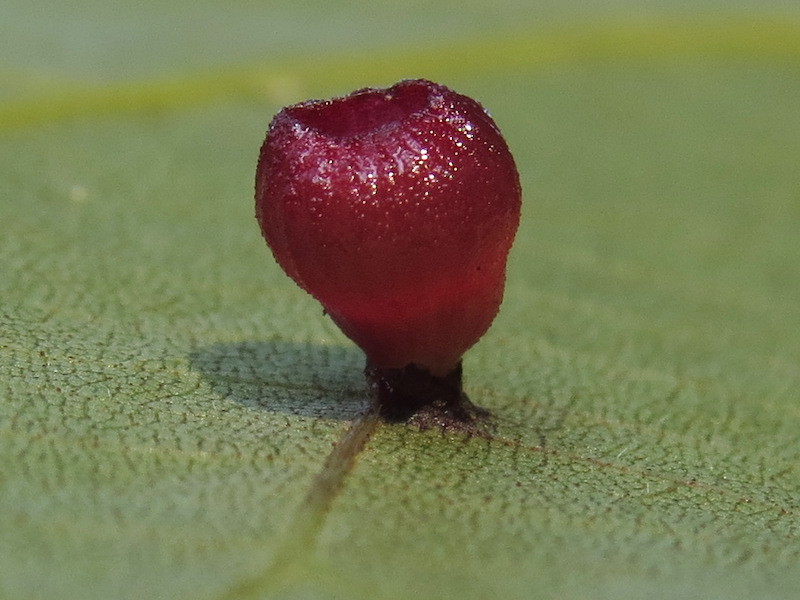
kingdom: Animalia
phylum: Arthropoda
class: Insecta
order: Diptera
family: Cecidomyiidae
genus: Caryomyia
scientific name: Caryomyia flaticrustum
